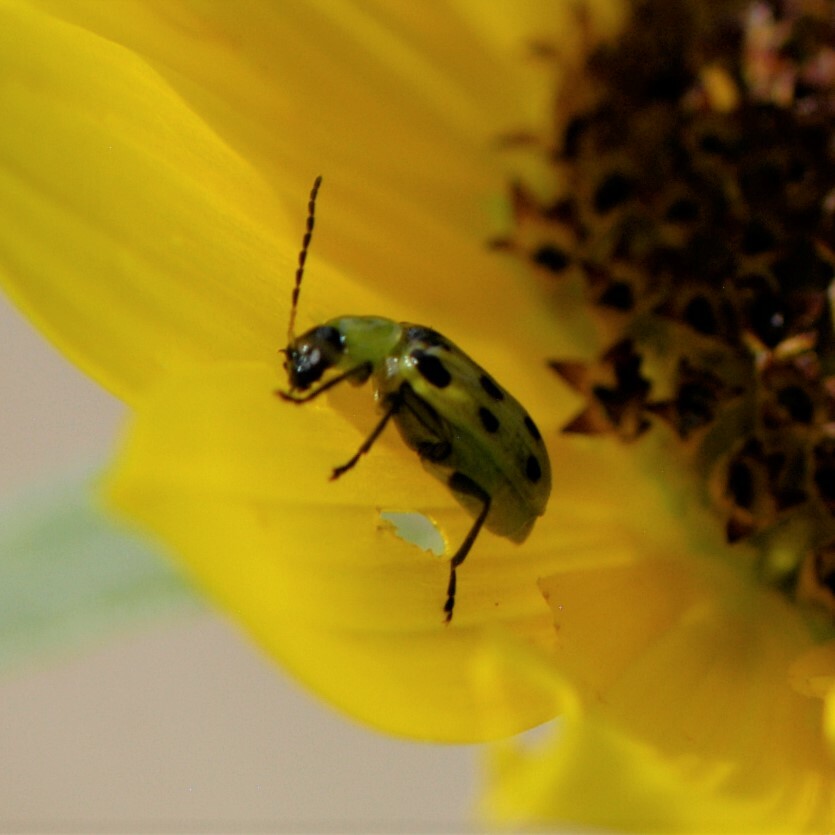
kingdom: Animalia
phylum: Arthropoda
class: Insecta
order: Coleoptera
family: Chrysomelidae
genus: Diabrotica
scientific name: Diabrotica undecimpunctata
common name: Spotted cucumber beetle
